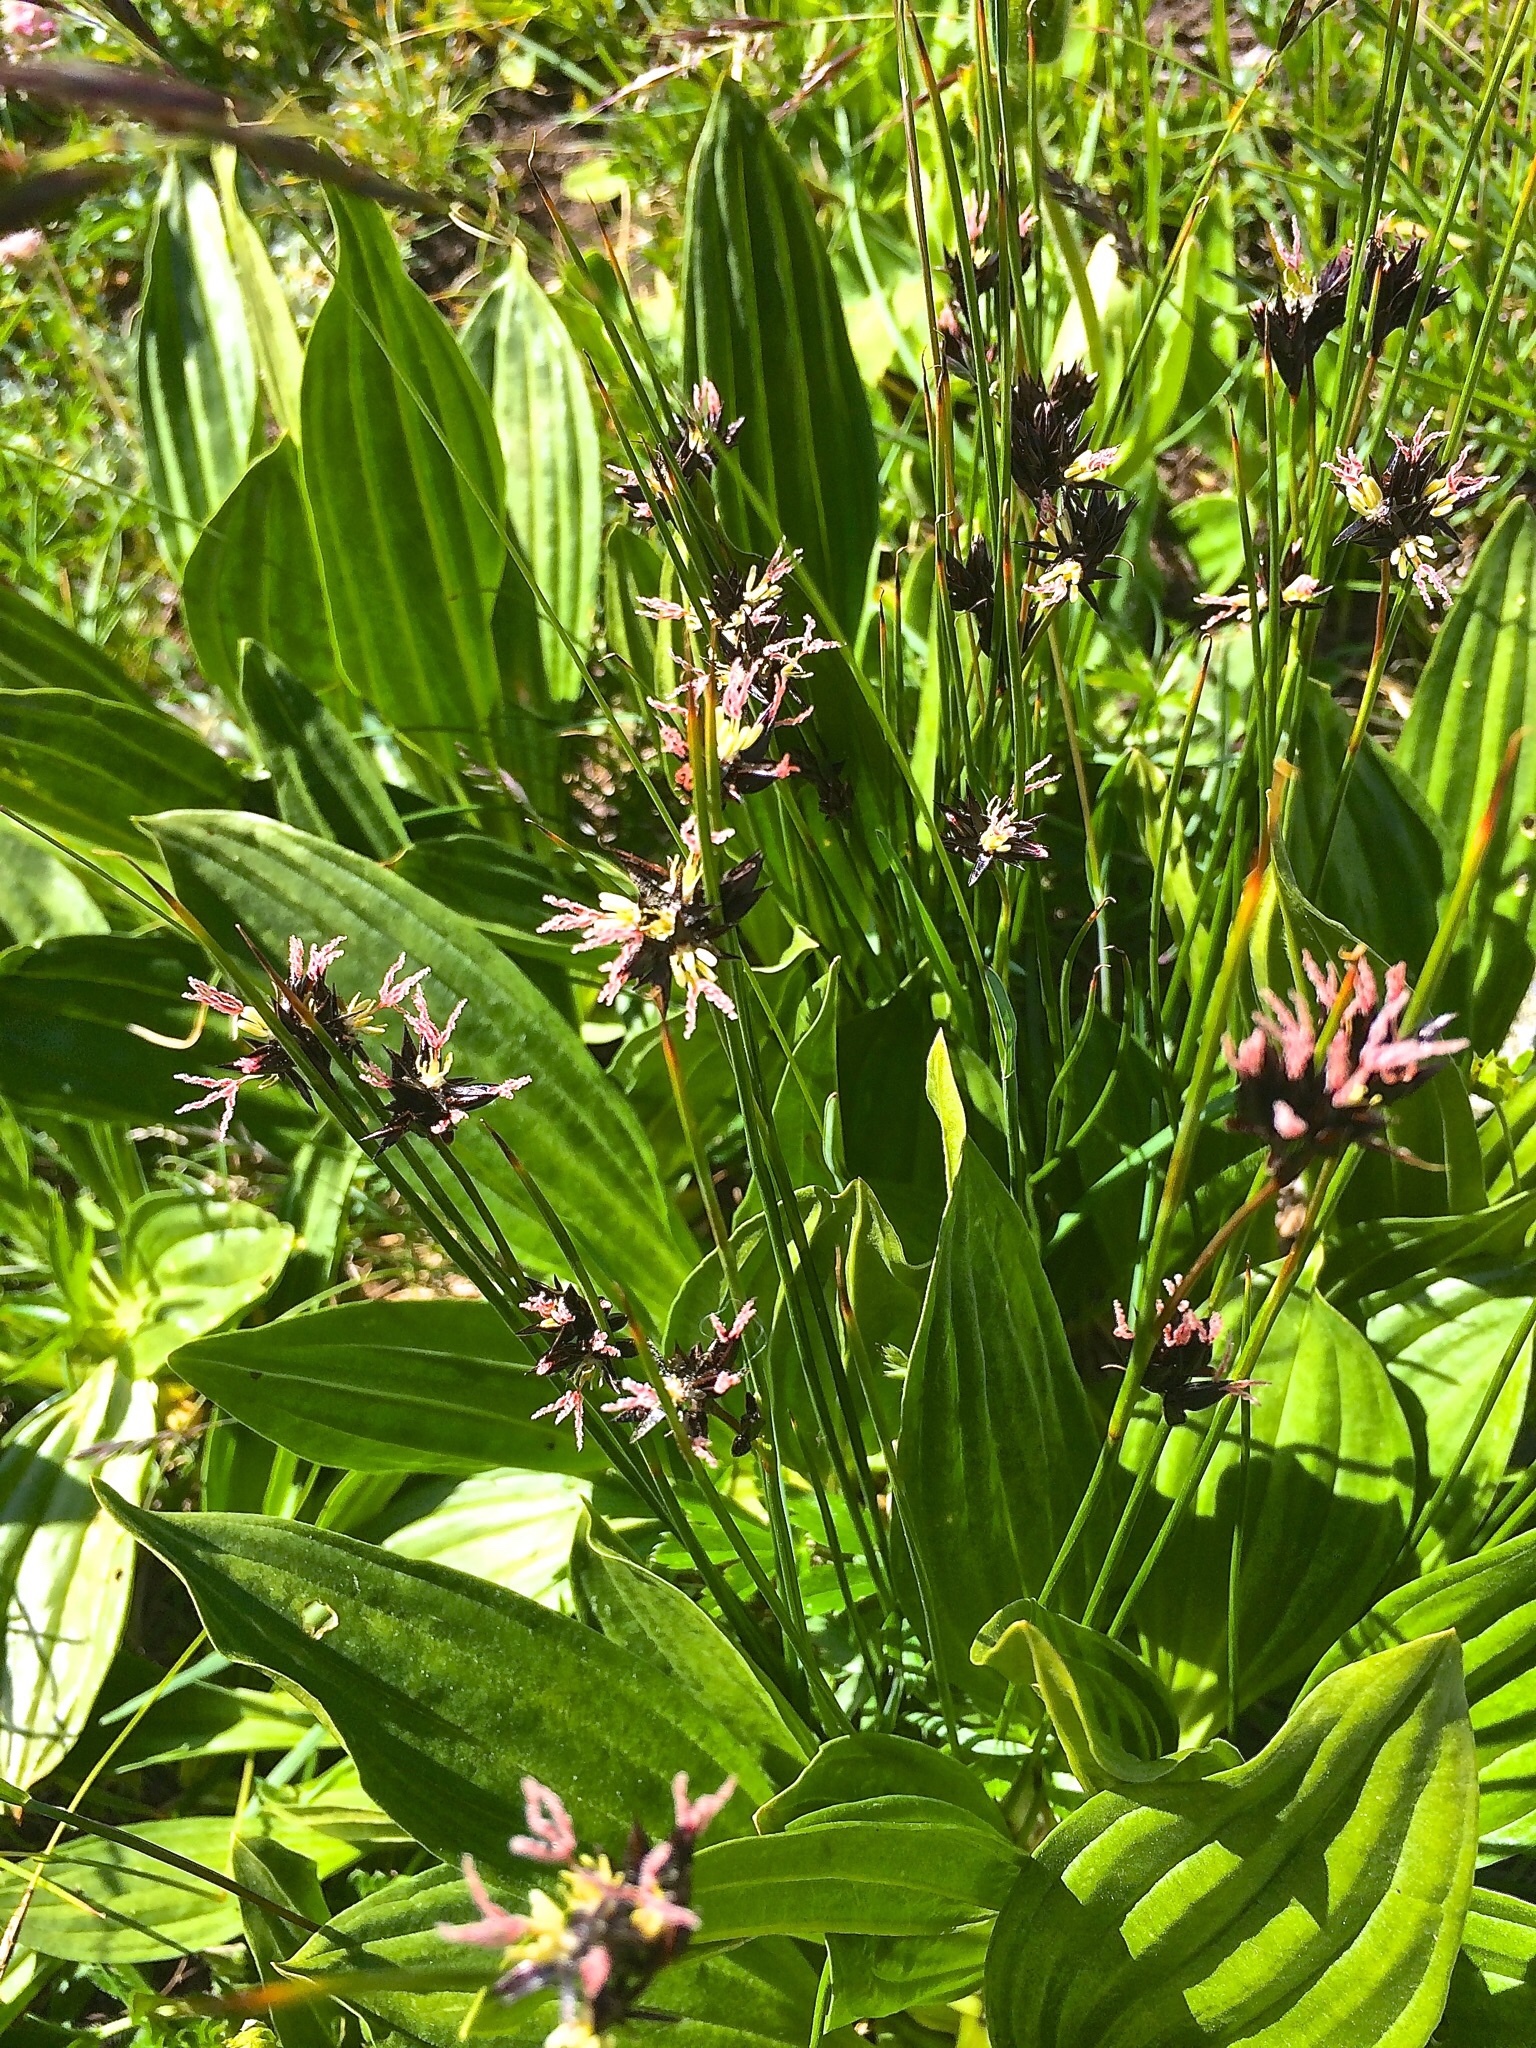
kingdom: Plantae
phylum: Tracheophyta
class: Liliopsida
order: Poales
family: Juncaceae
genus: Juncus
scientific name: Juncus jacquinii
